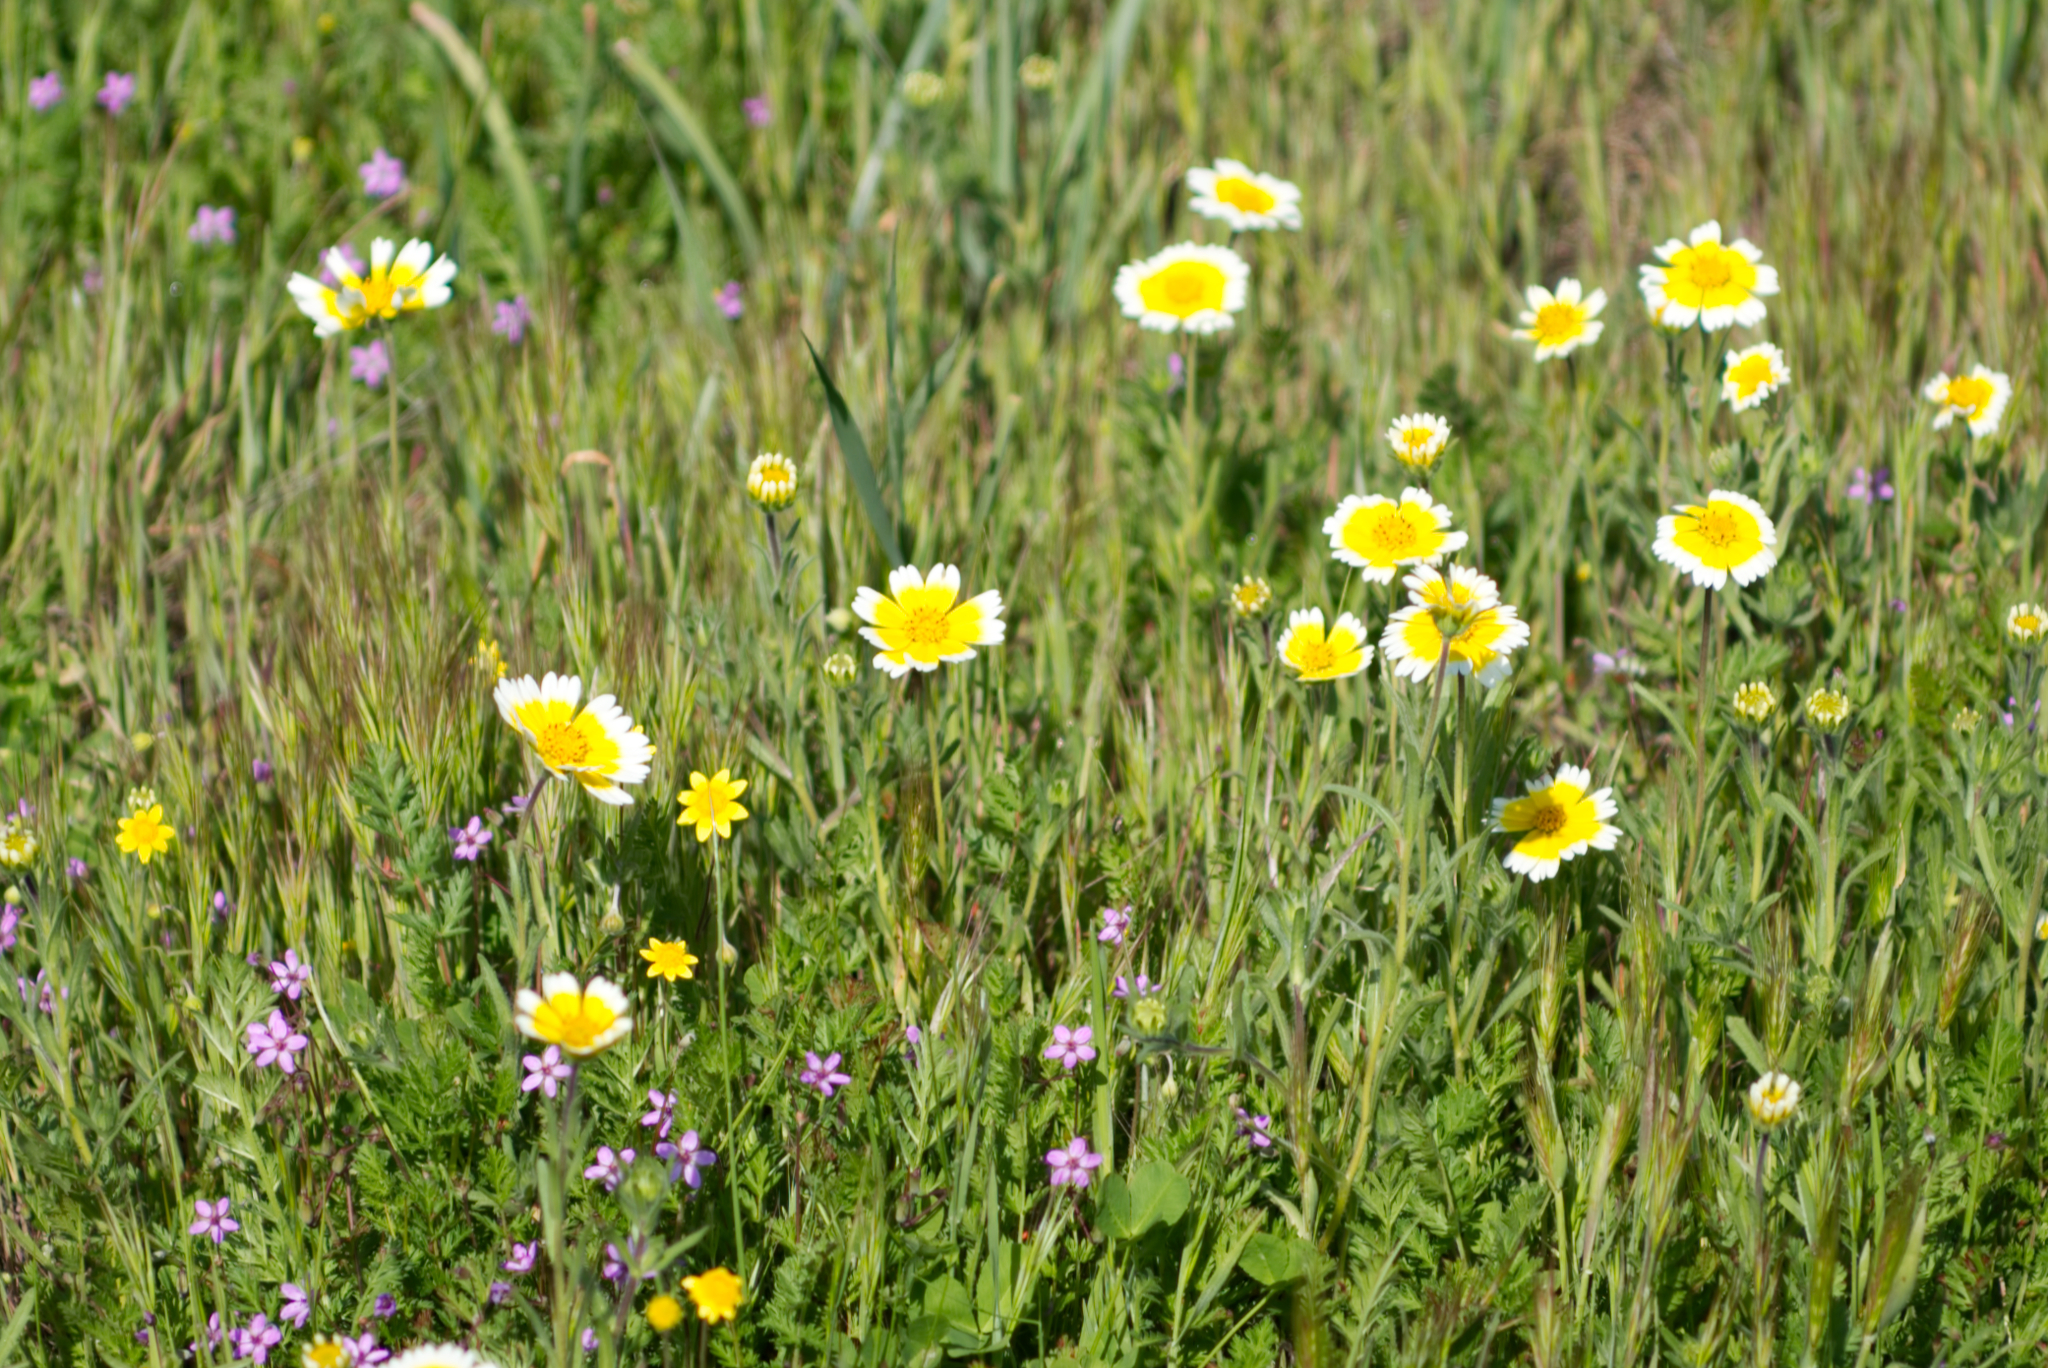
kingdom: Plantae
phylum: Tracheophyta
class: Magnoliopsida
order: Asterales
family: Asteraceae
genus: Layia
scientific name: Layia platyglossa
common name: Tidy-tips
